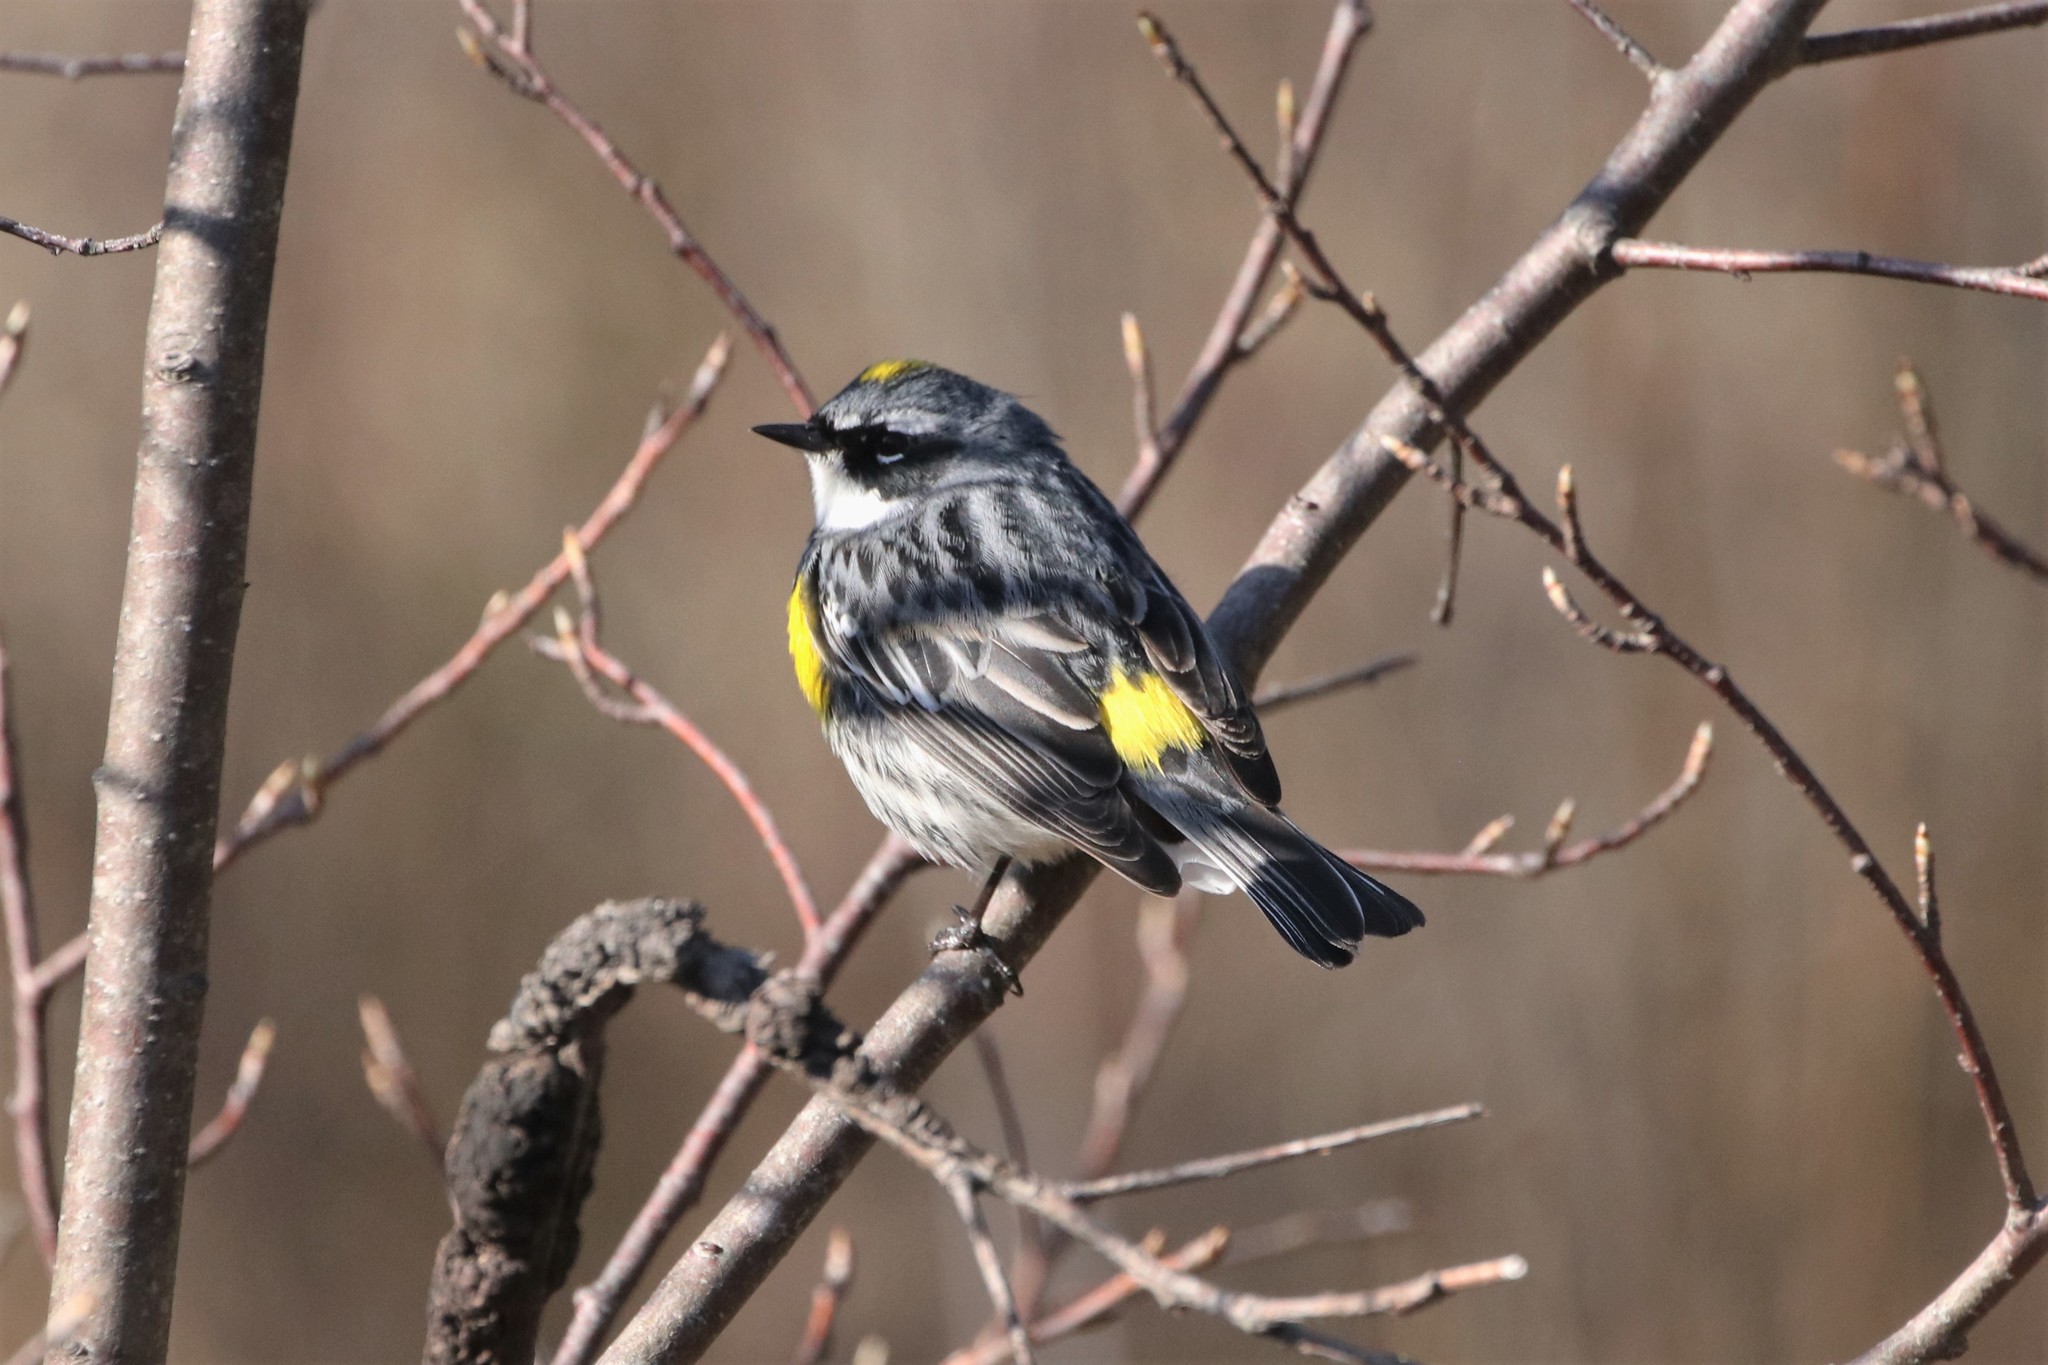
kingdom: Animalia
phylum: Chordata
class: Aves
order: Passeriformes
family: Parulidae
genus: Setophaga
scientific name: Setophaga coronata
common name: Myrtle warbler
